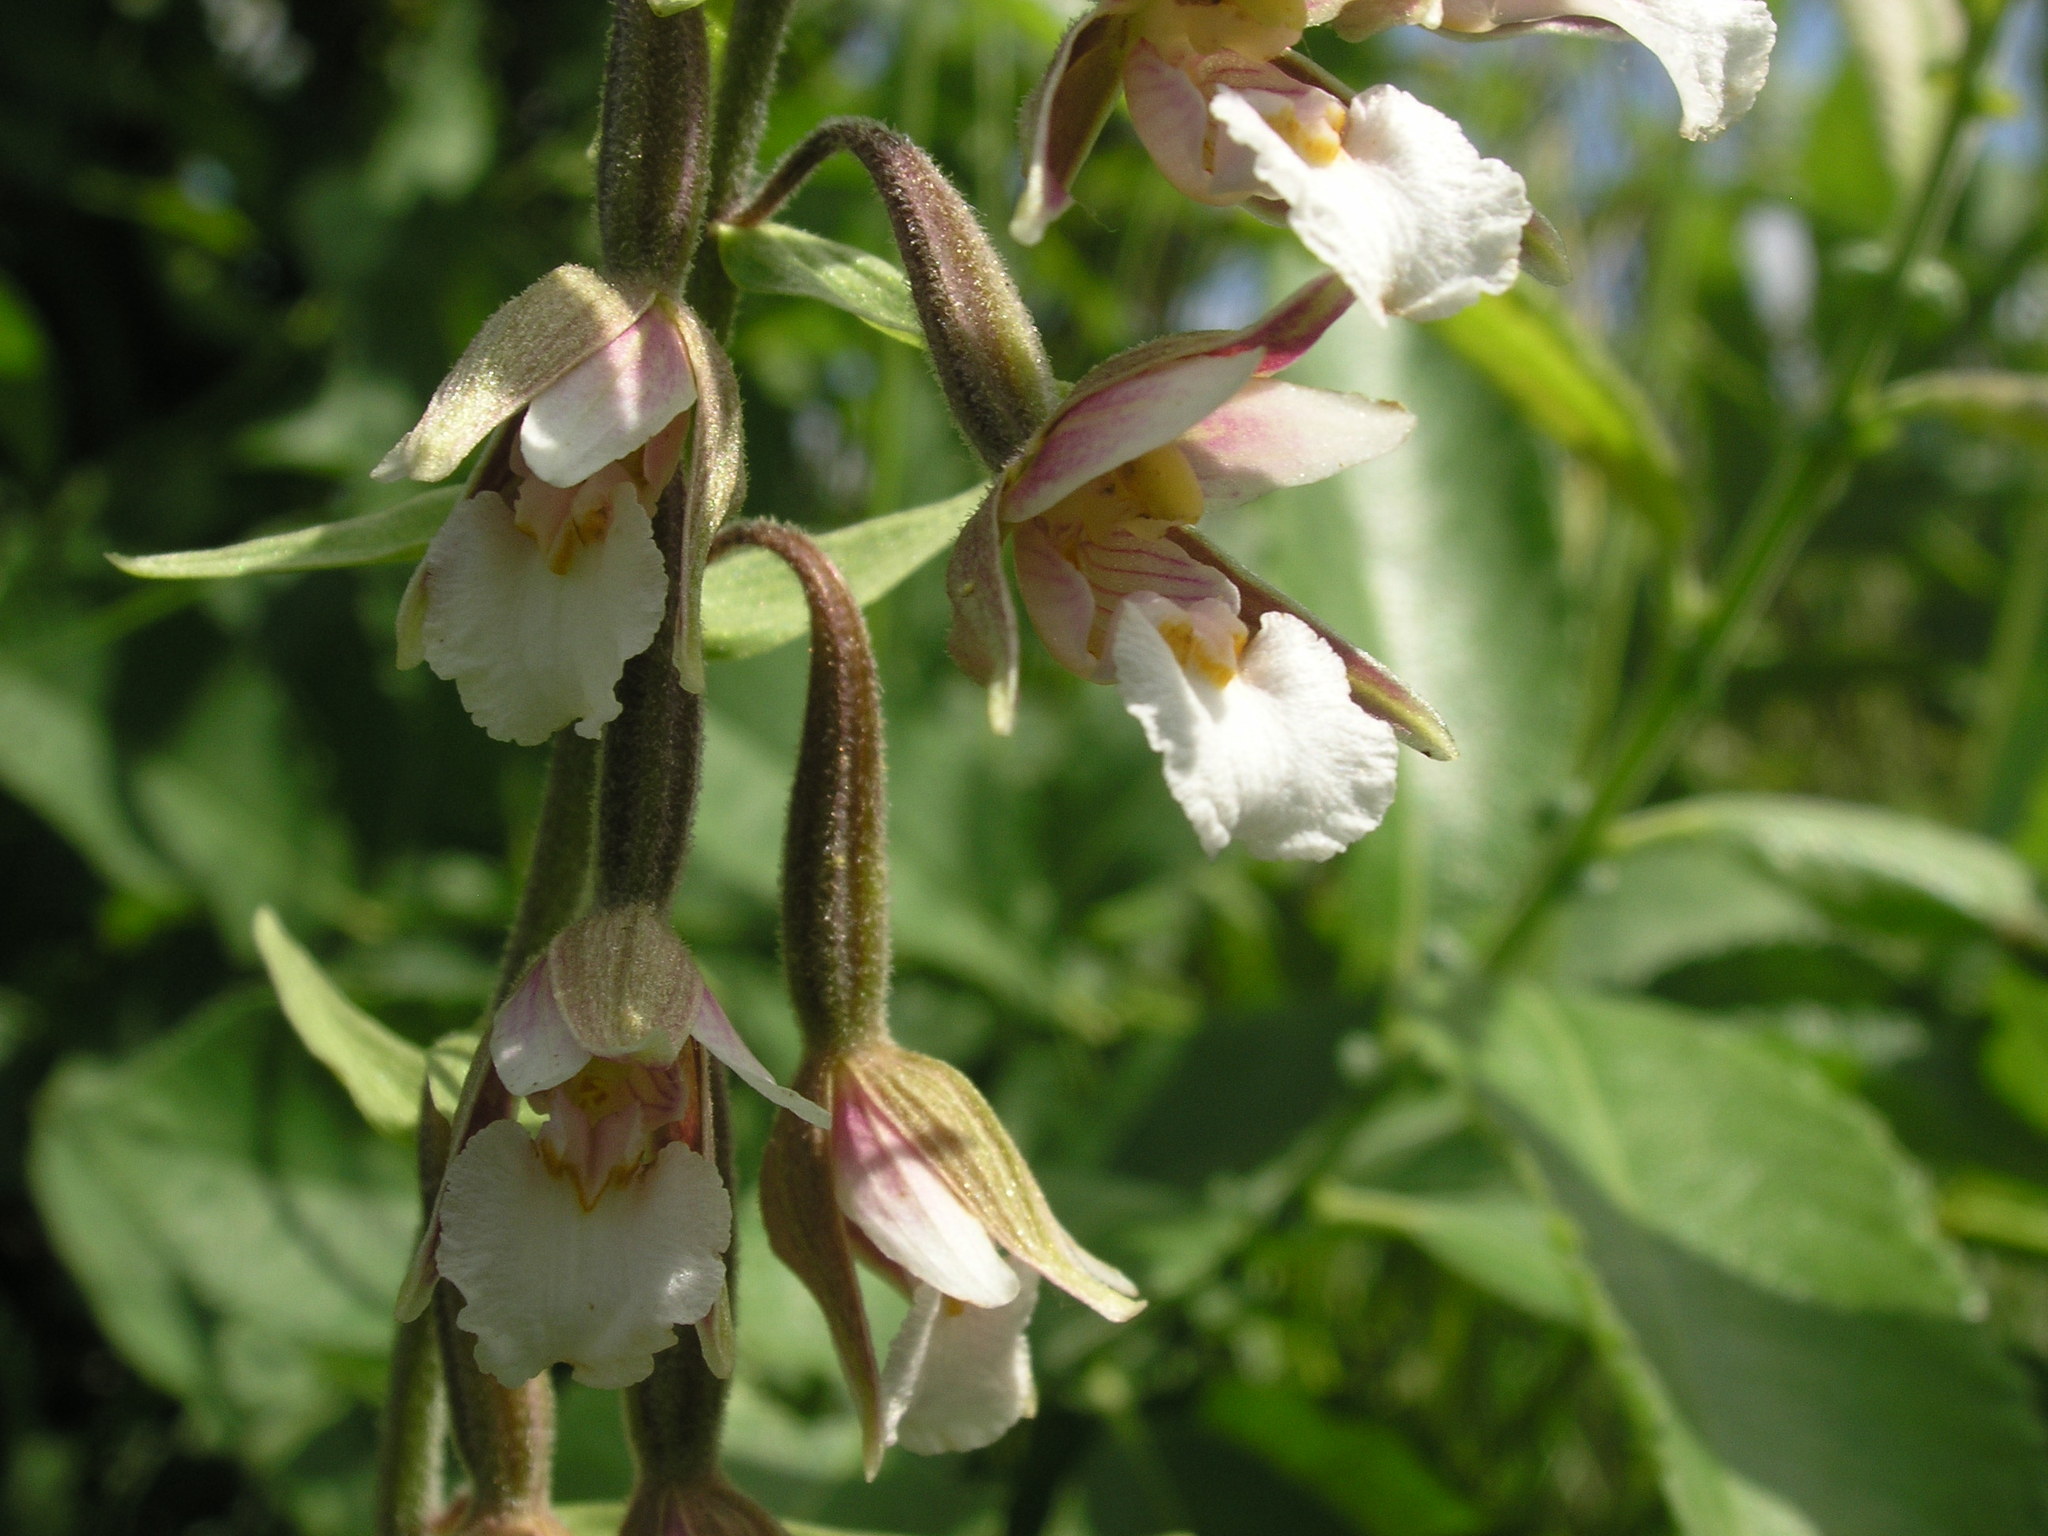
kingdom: Plantae
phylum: Tracheophyta
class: Liliopsida
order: Asparagales
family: Orchidaceae
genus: Epipactis
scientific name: Epipactis palustris
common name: Marsh helleborine
